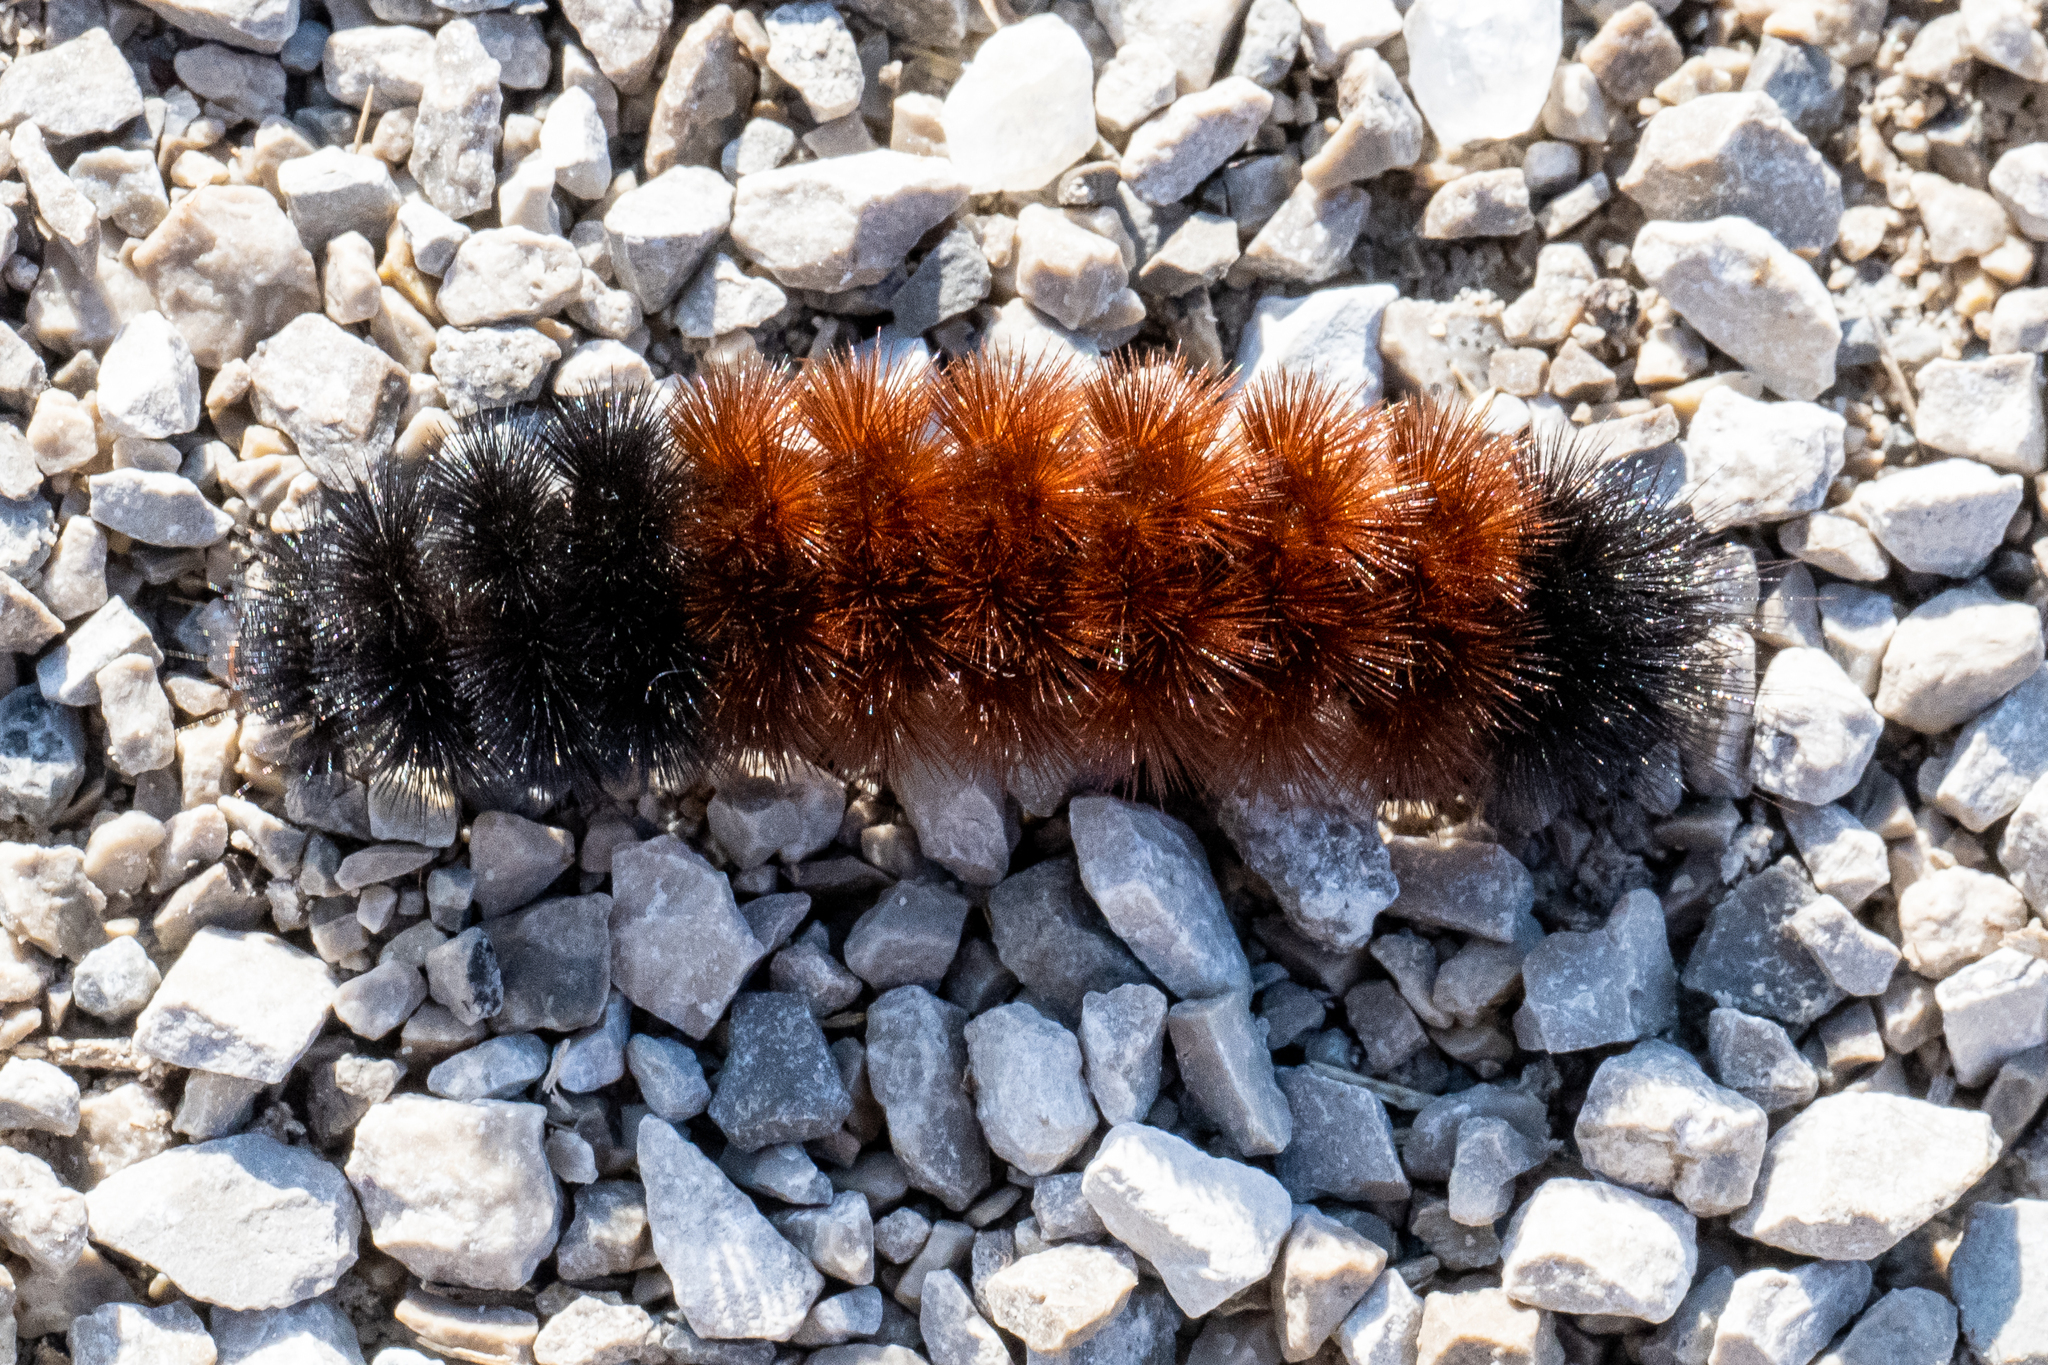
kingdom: Animalia
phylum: Arthropoda
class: Insecta
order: Lepidoptera
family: Erebidae
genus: Pyrrharctia
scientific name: Pyrrharctia isabella
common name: Isabella tiger moth
